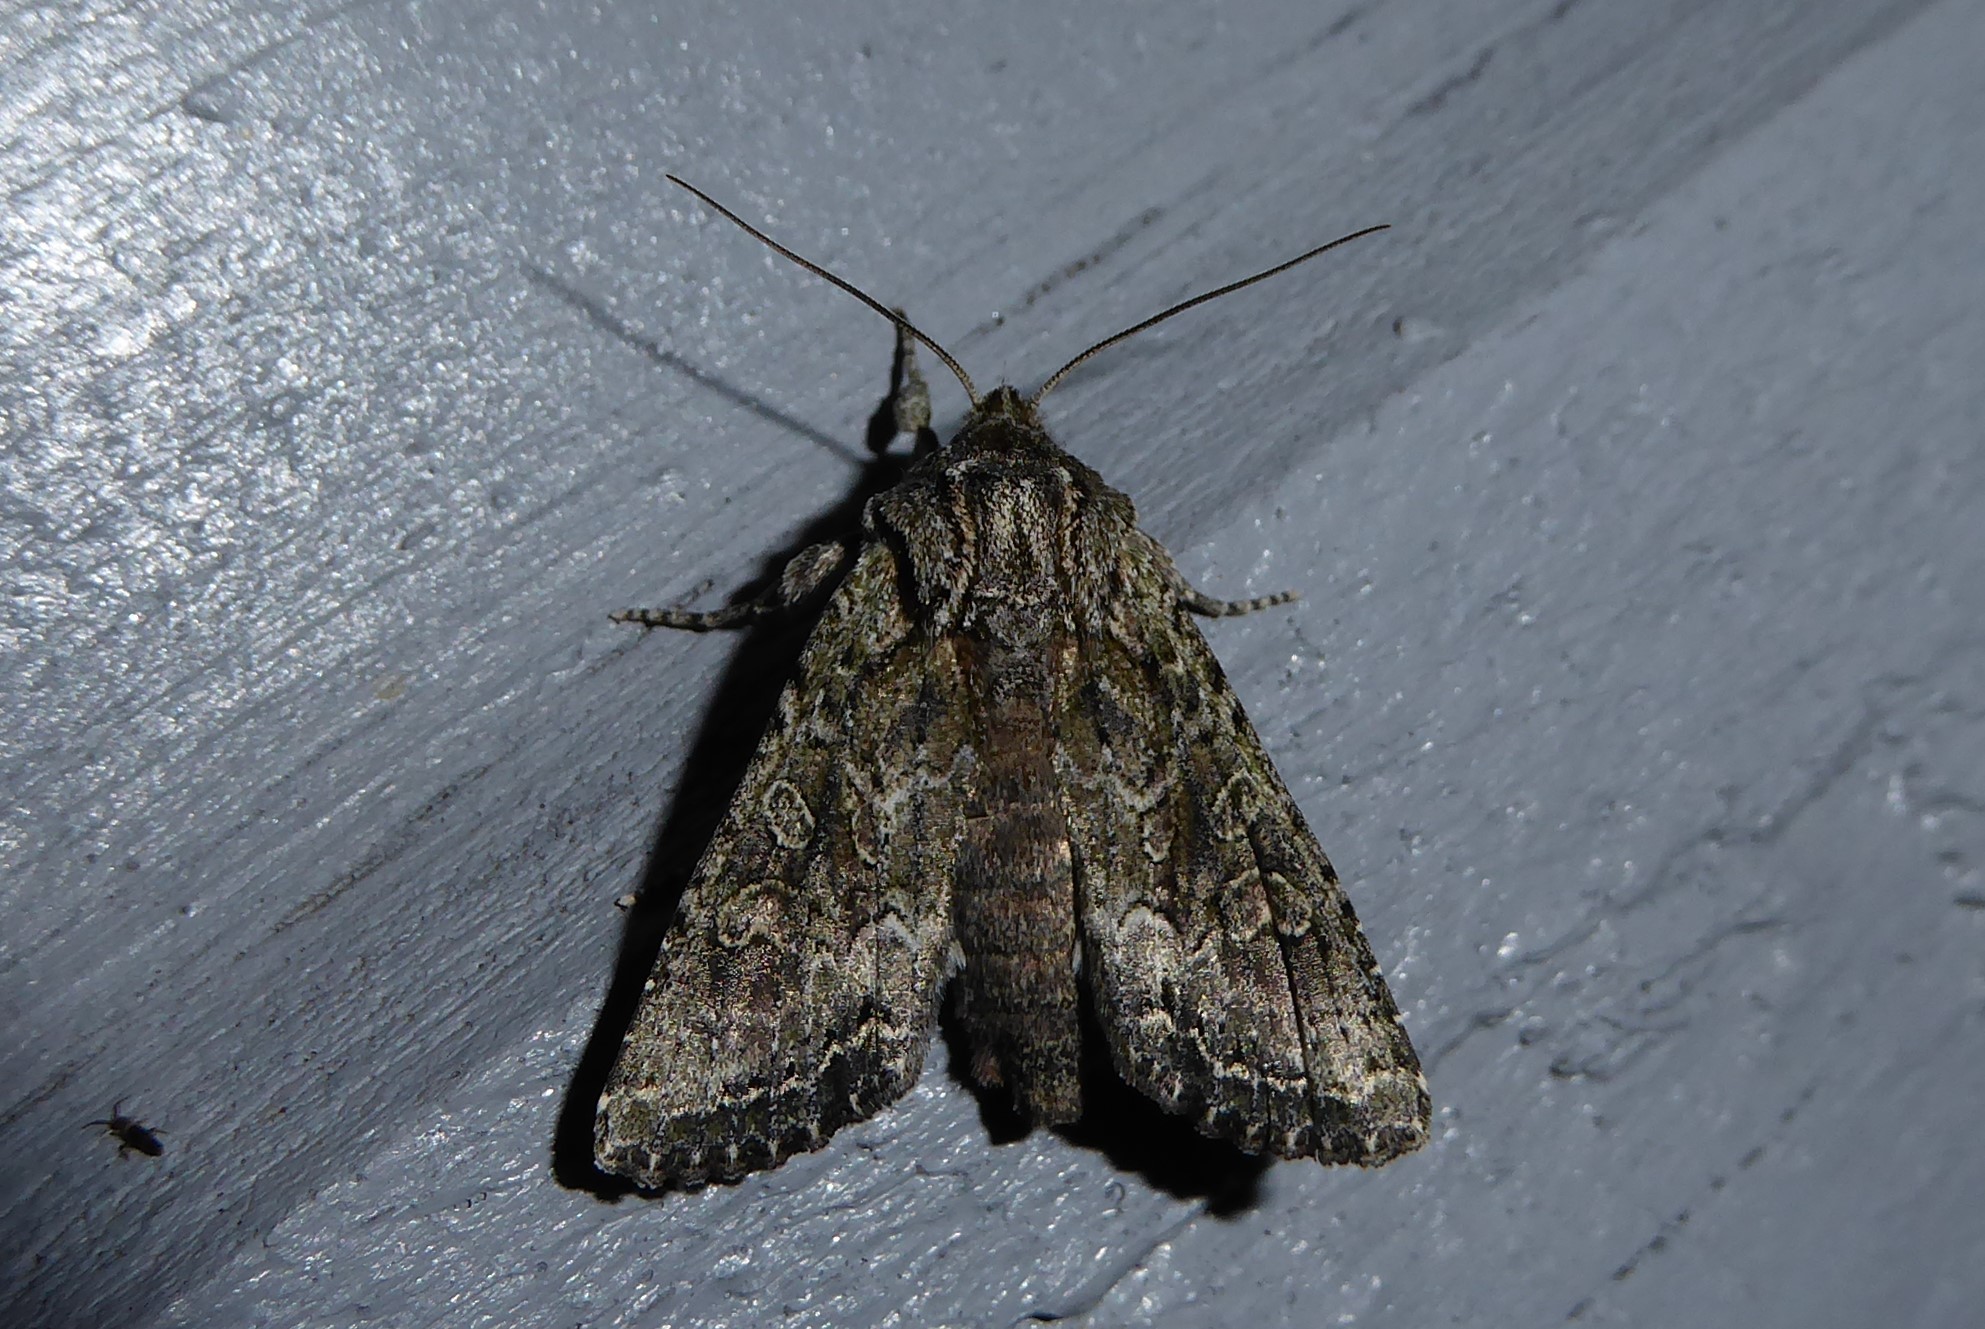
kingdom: Animalia
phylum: Arthropoda
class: Insecta
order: Lepidoptera
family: Noctuidae
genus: Ichneutica
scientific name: Ichneutica mutans
